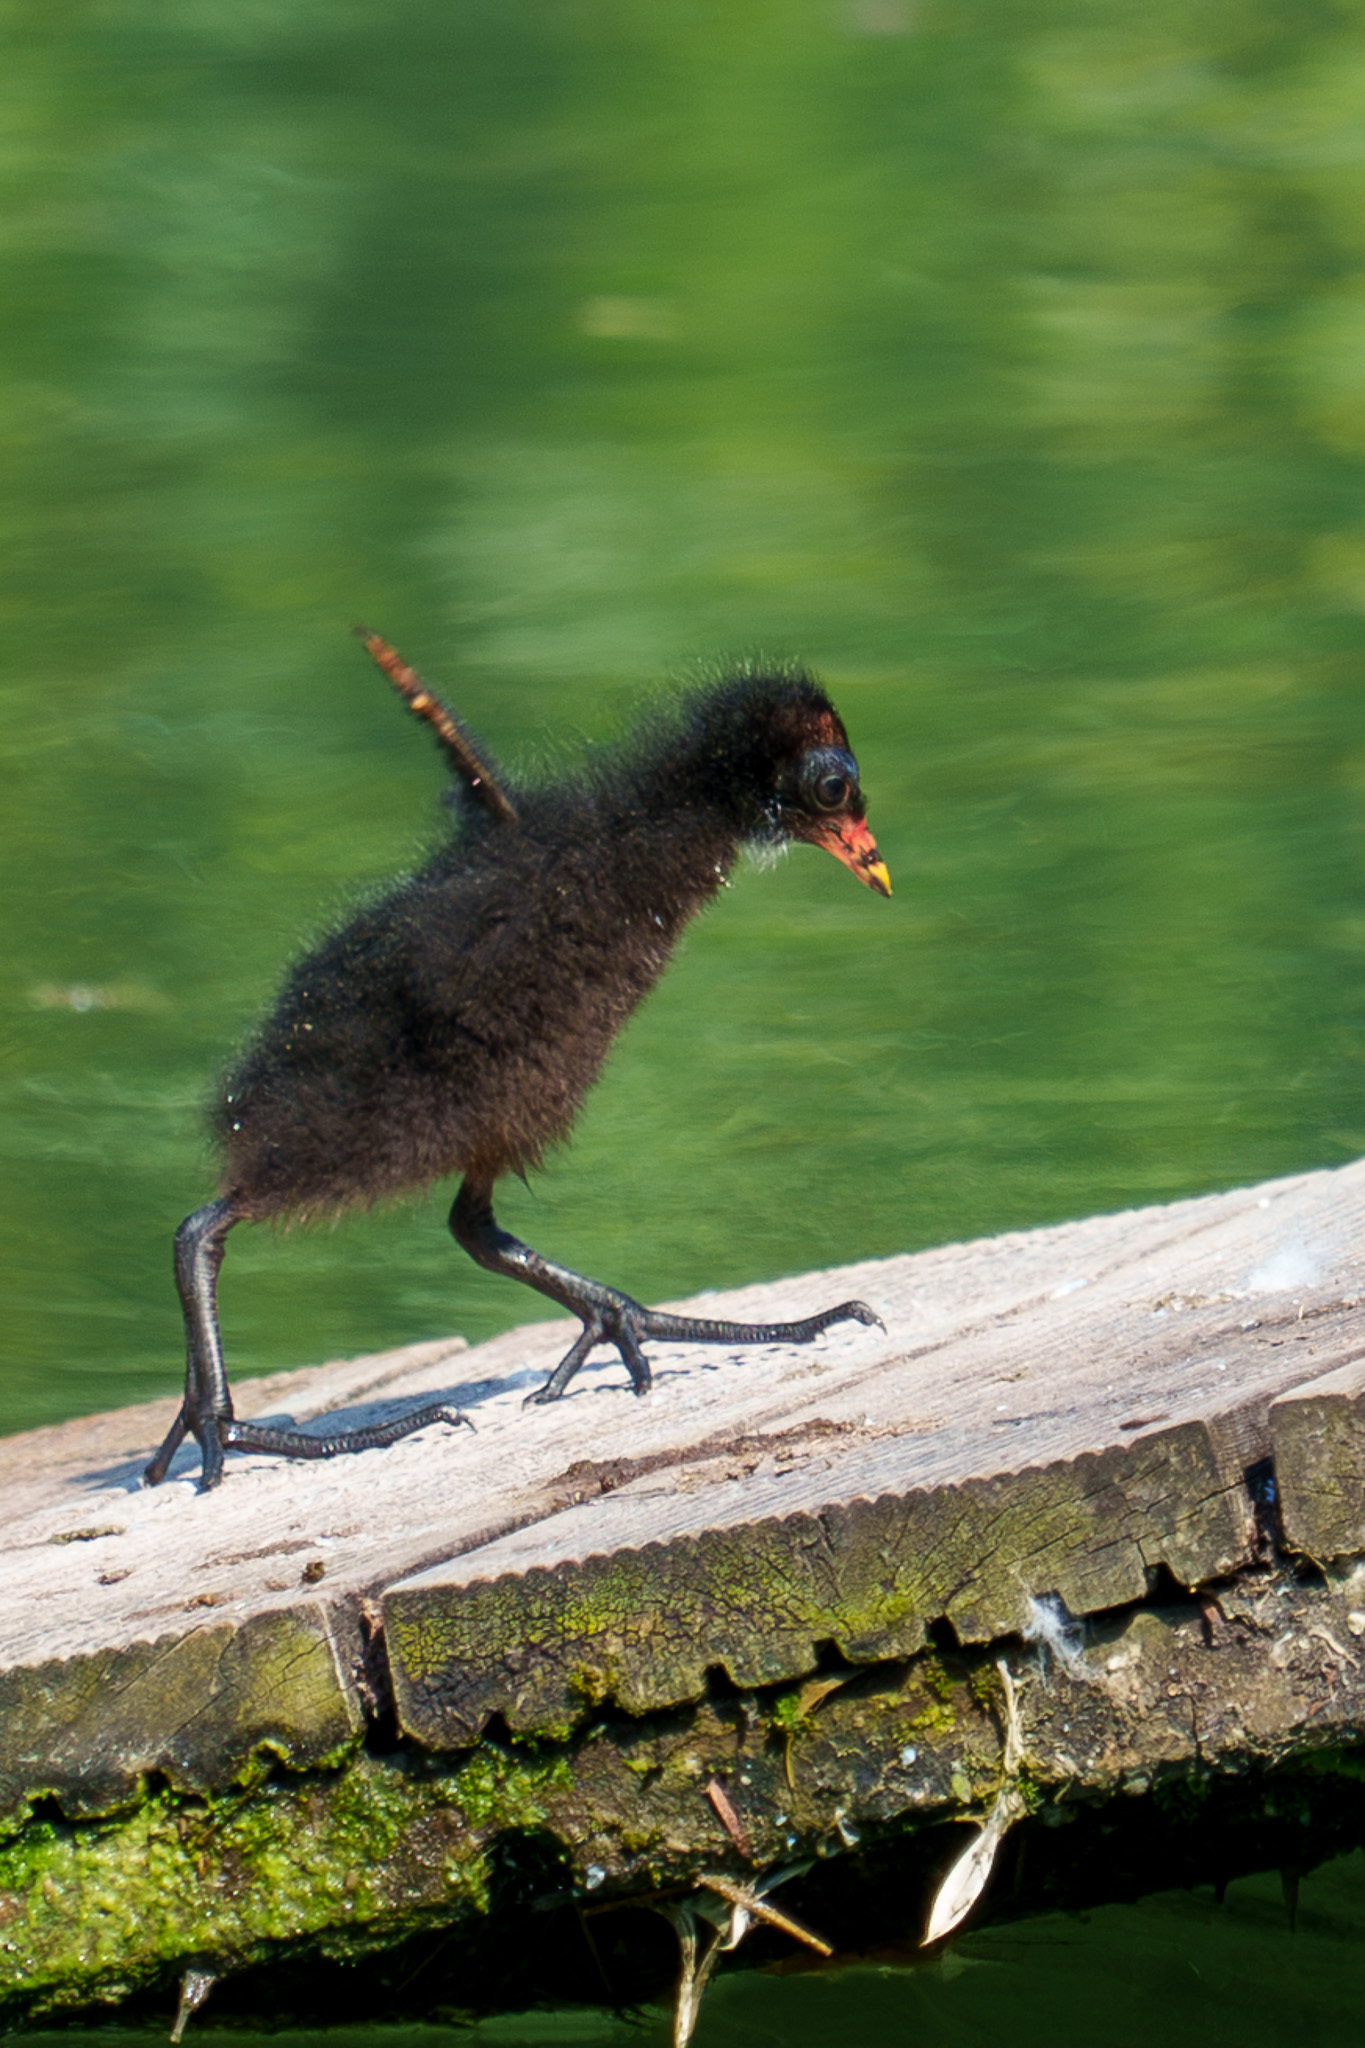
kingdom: Animalia
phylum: Chordata
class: Aves
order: Gruiformes
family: Rallidae
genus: Gallinula
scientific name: Gallinula chloropus
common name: Common moorhen
